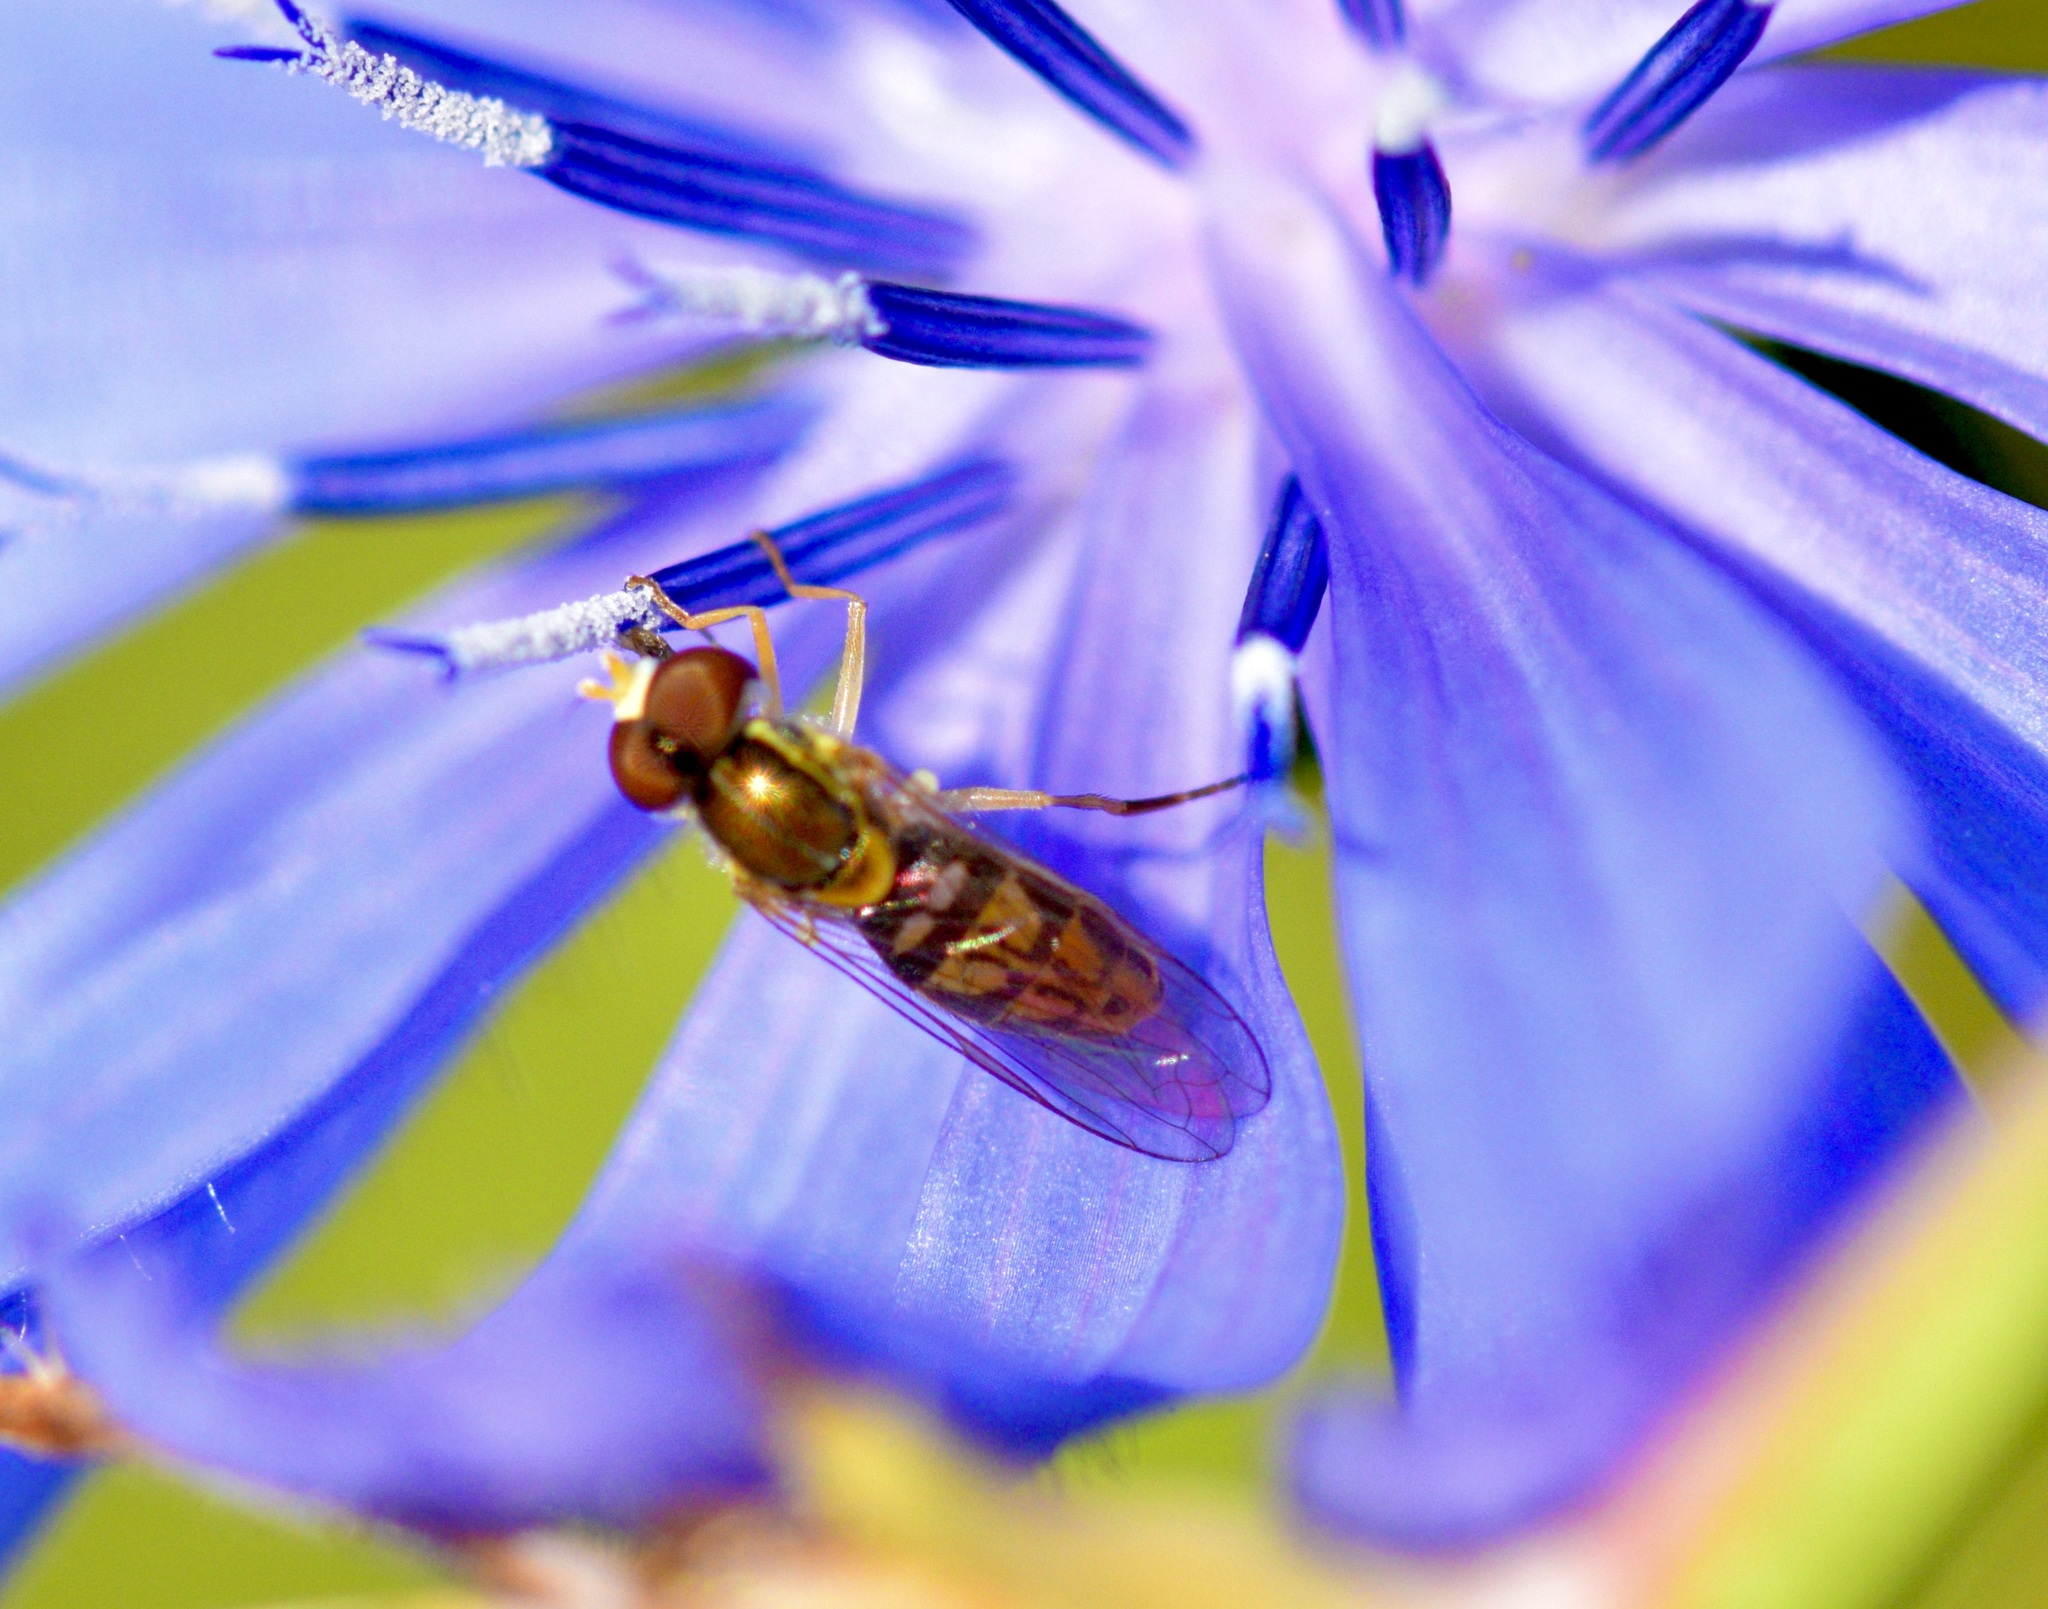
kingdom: Animalia
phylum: Arthropoda
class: Insecta
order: Diptera
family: Syrphidae
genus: Toxomerus
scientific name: Toxomerus marginatus
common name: Syrphid fly
